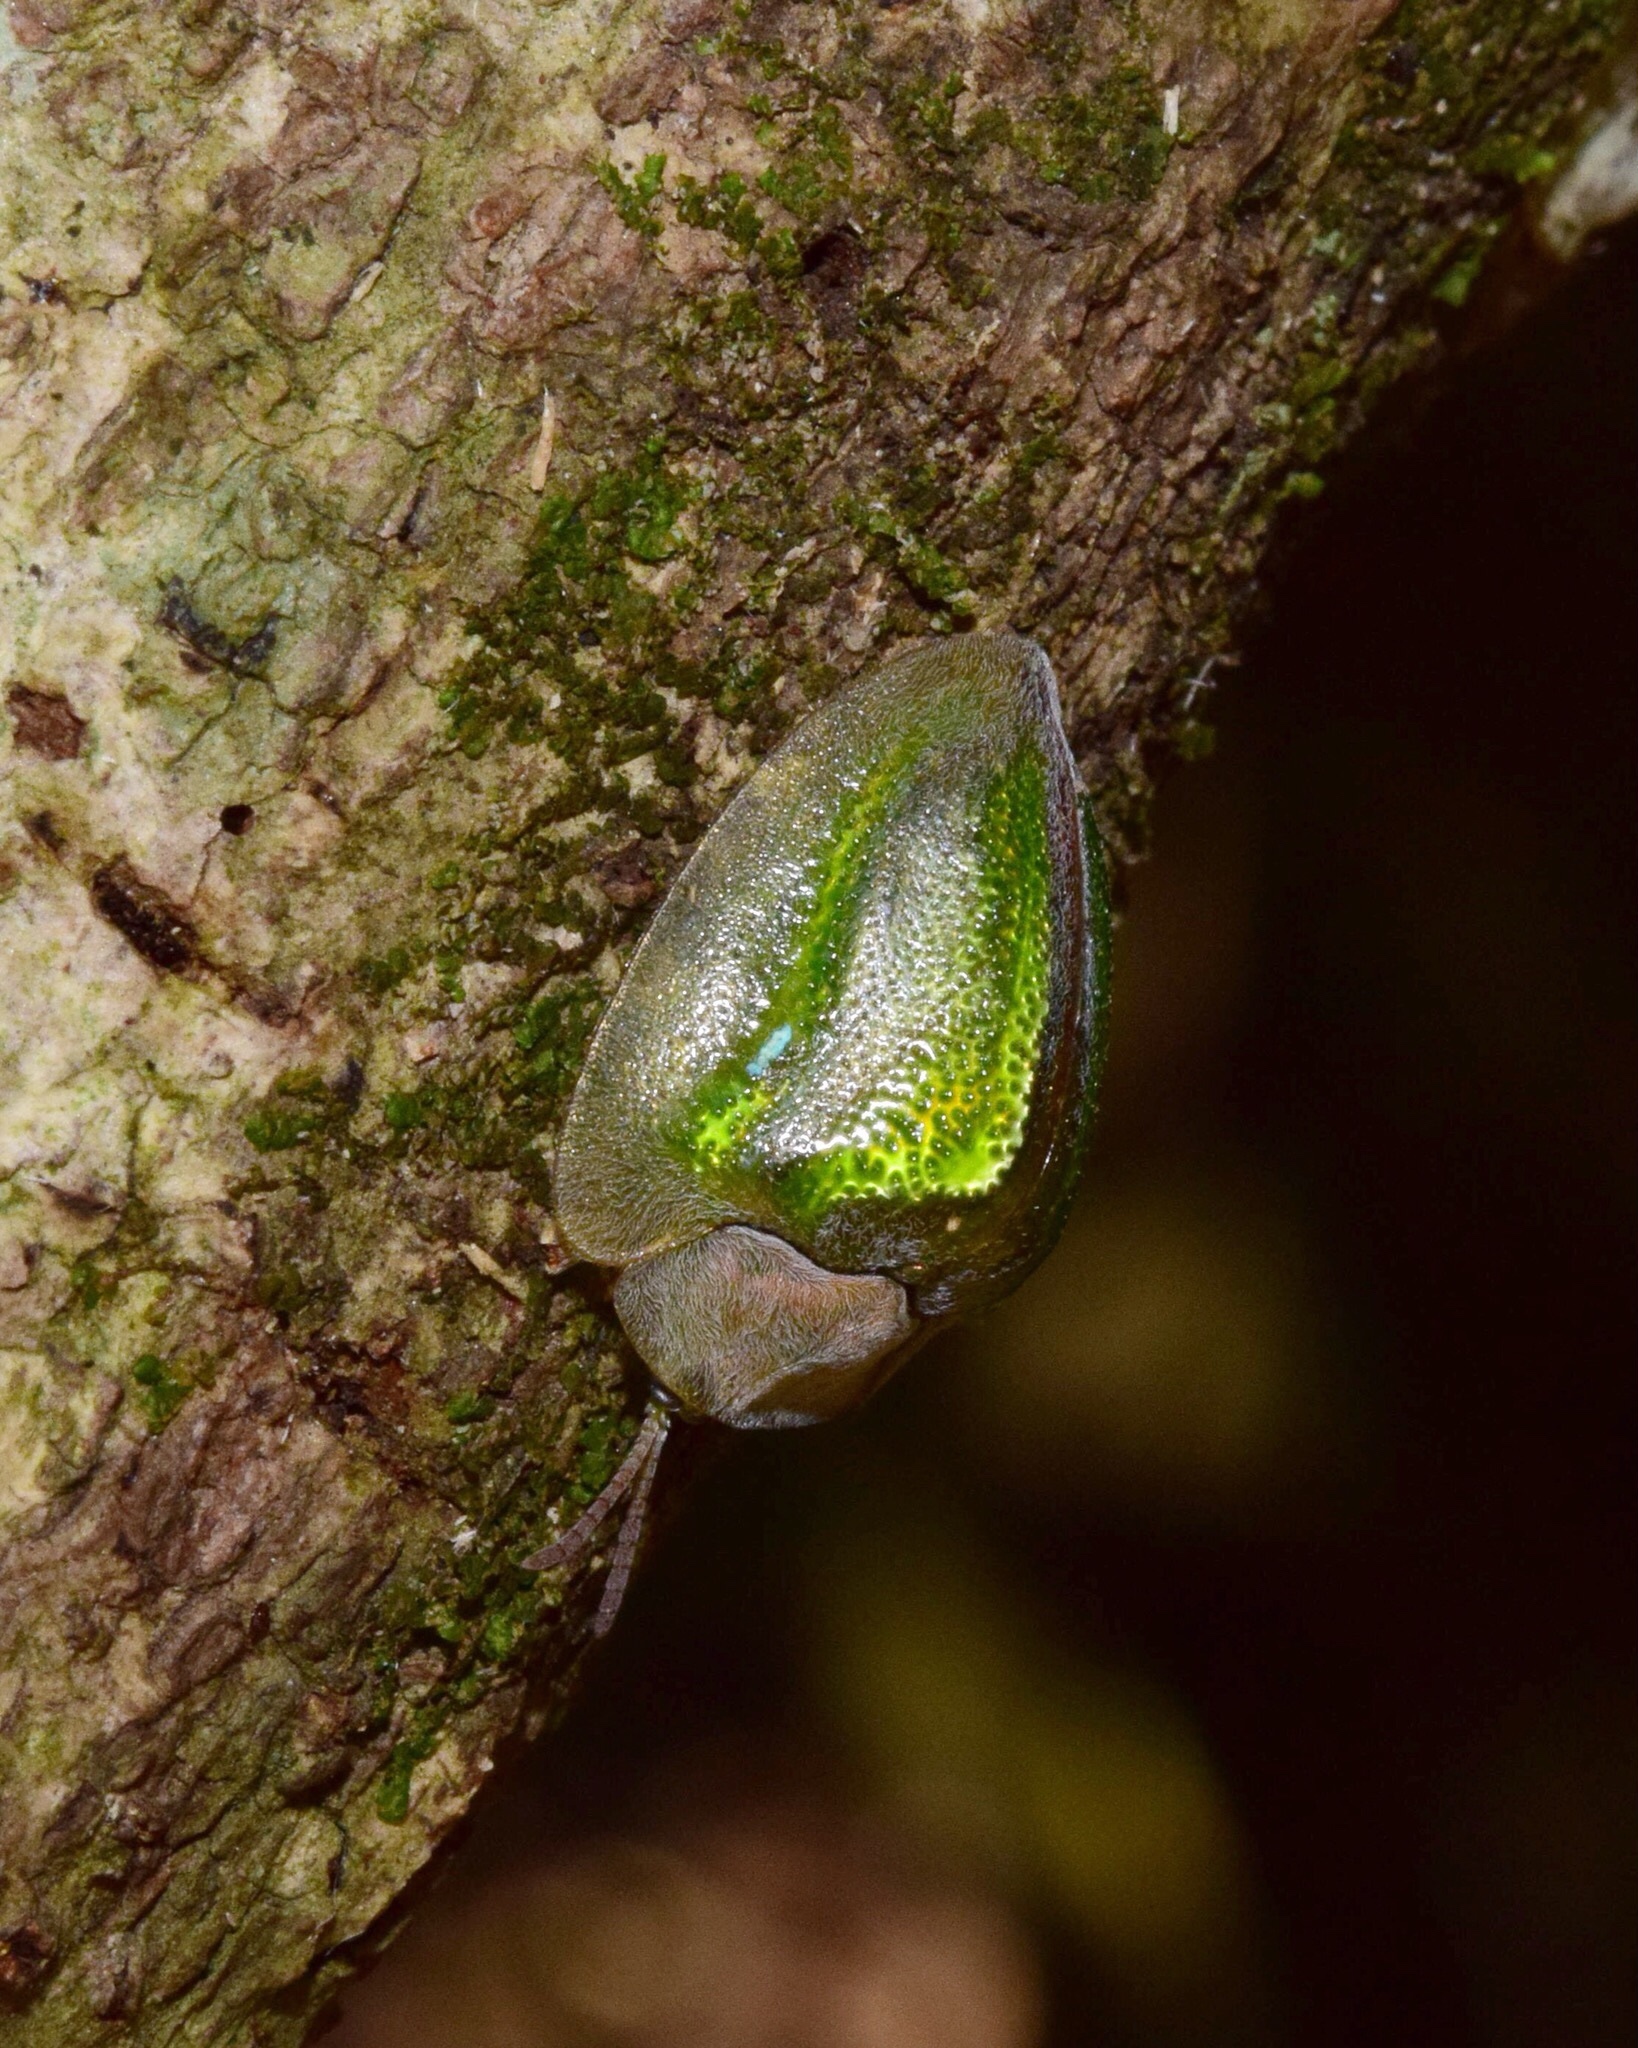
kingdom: Animalia
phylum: Arthropoda
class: Insecta
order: Coleoptera
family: Chrysomelidae
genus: Basipta
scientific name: Basipta stolida
